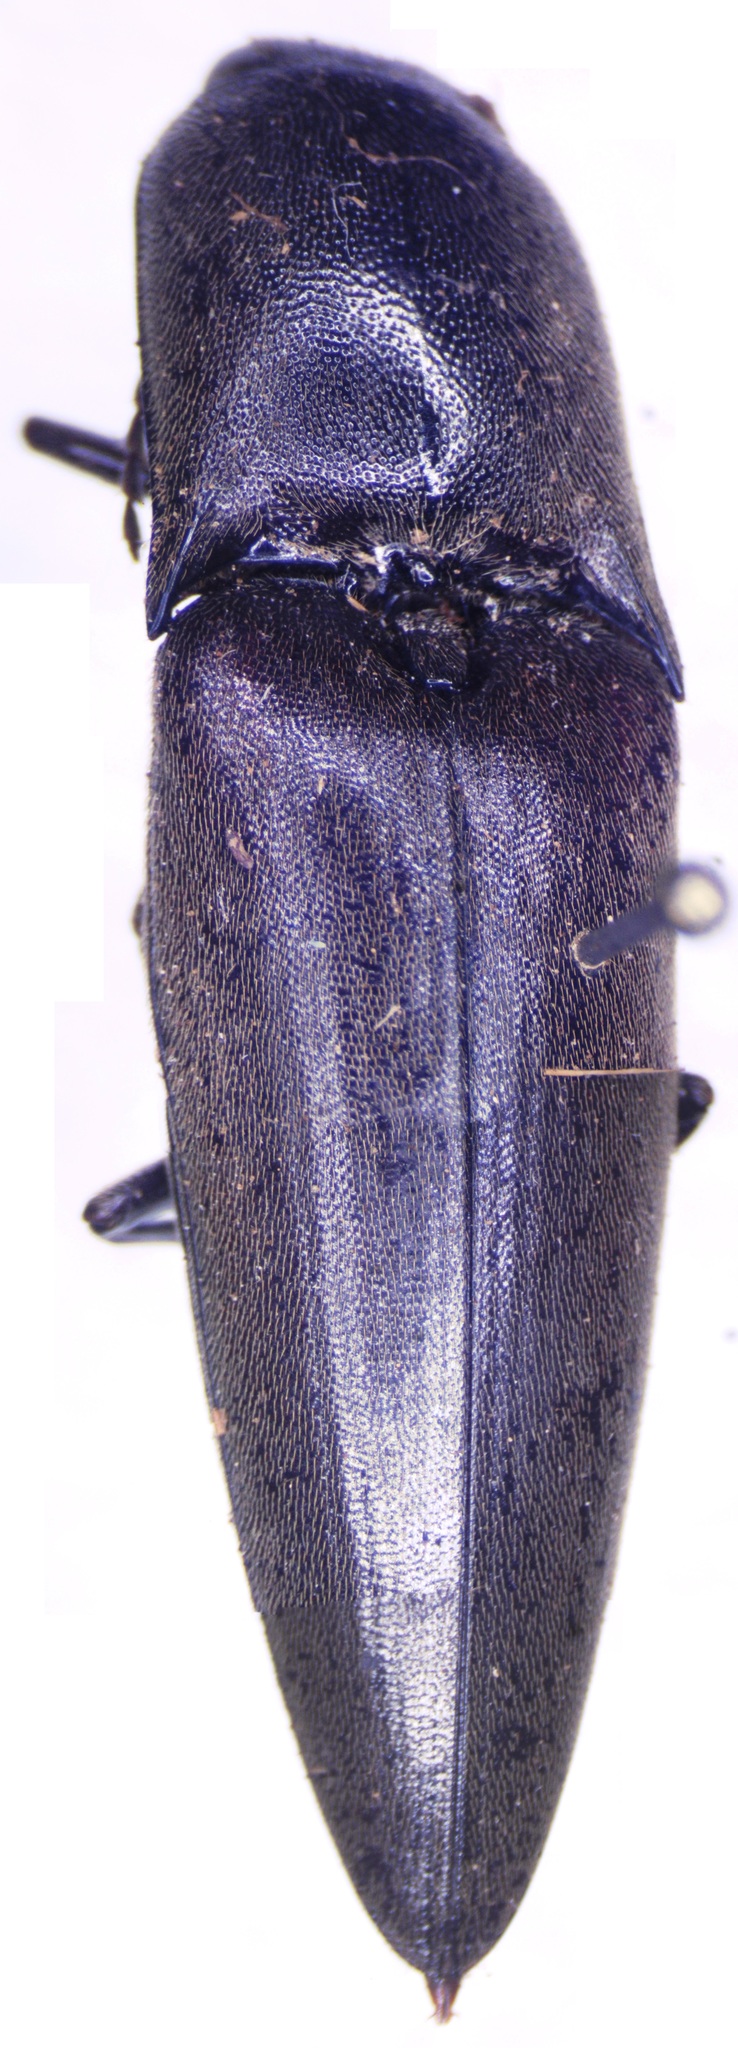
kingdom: Animalia
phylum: Arthropoda
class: Insecta
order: Coleoptera
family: Elateridae
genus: Orthostethus
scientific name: Orthostethus infuscatus
